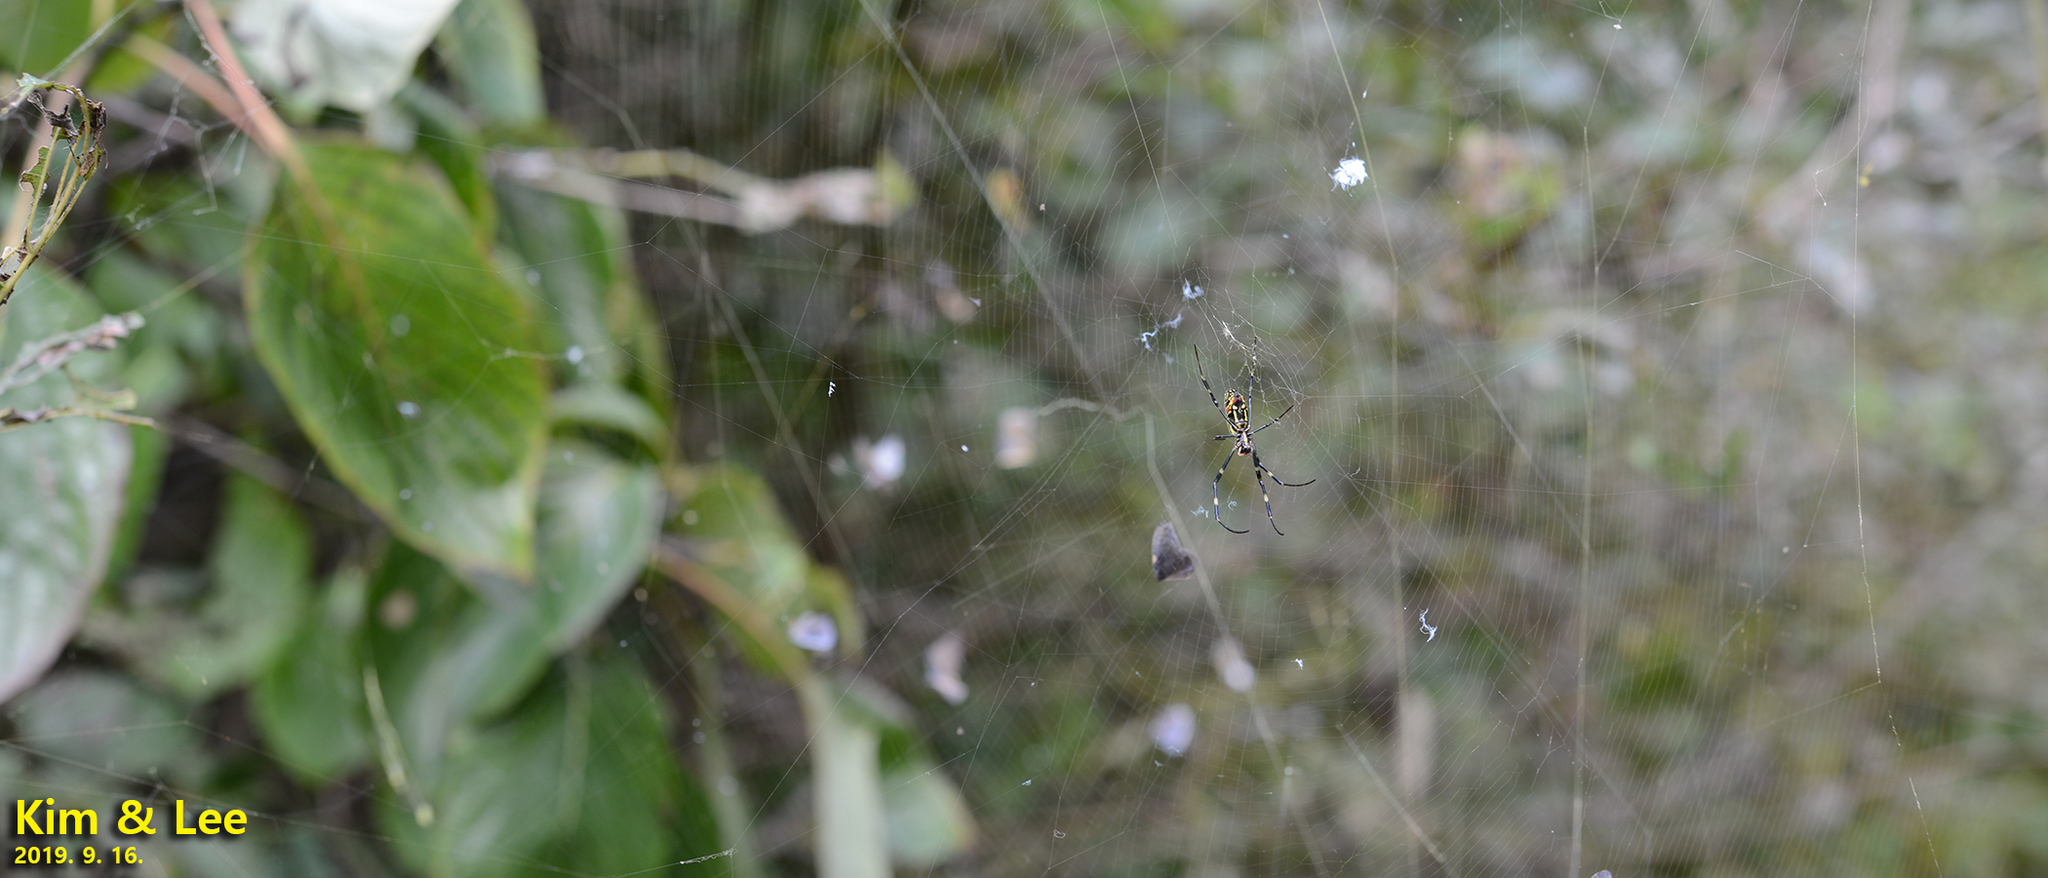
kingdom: Animalia
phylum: Arthropoda
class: Arachnida
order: Araneae
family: Araneidae
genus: Trichonephila
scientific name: Trichonephila clavata
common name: Jorō spider
